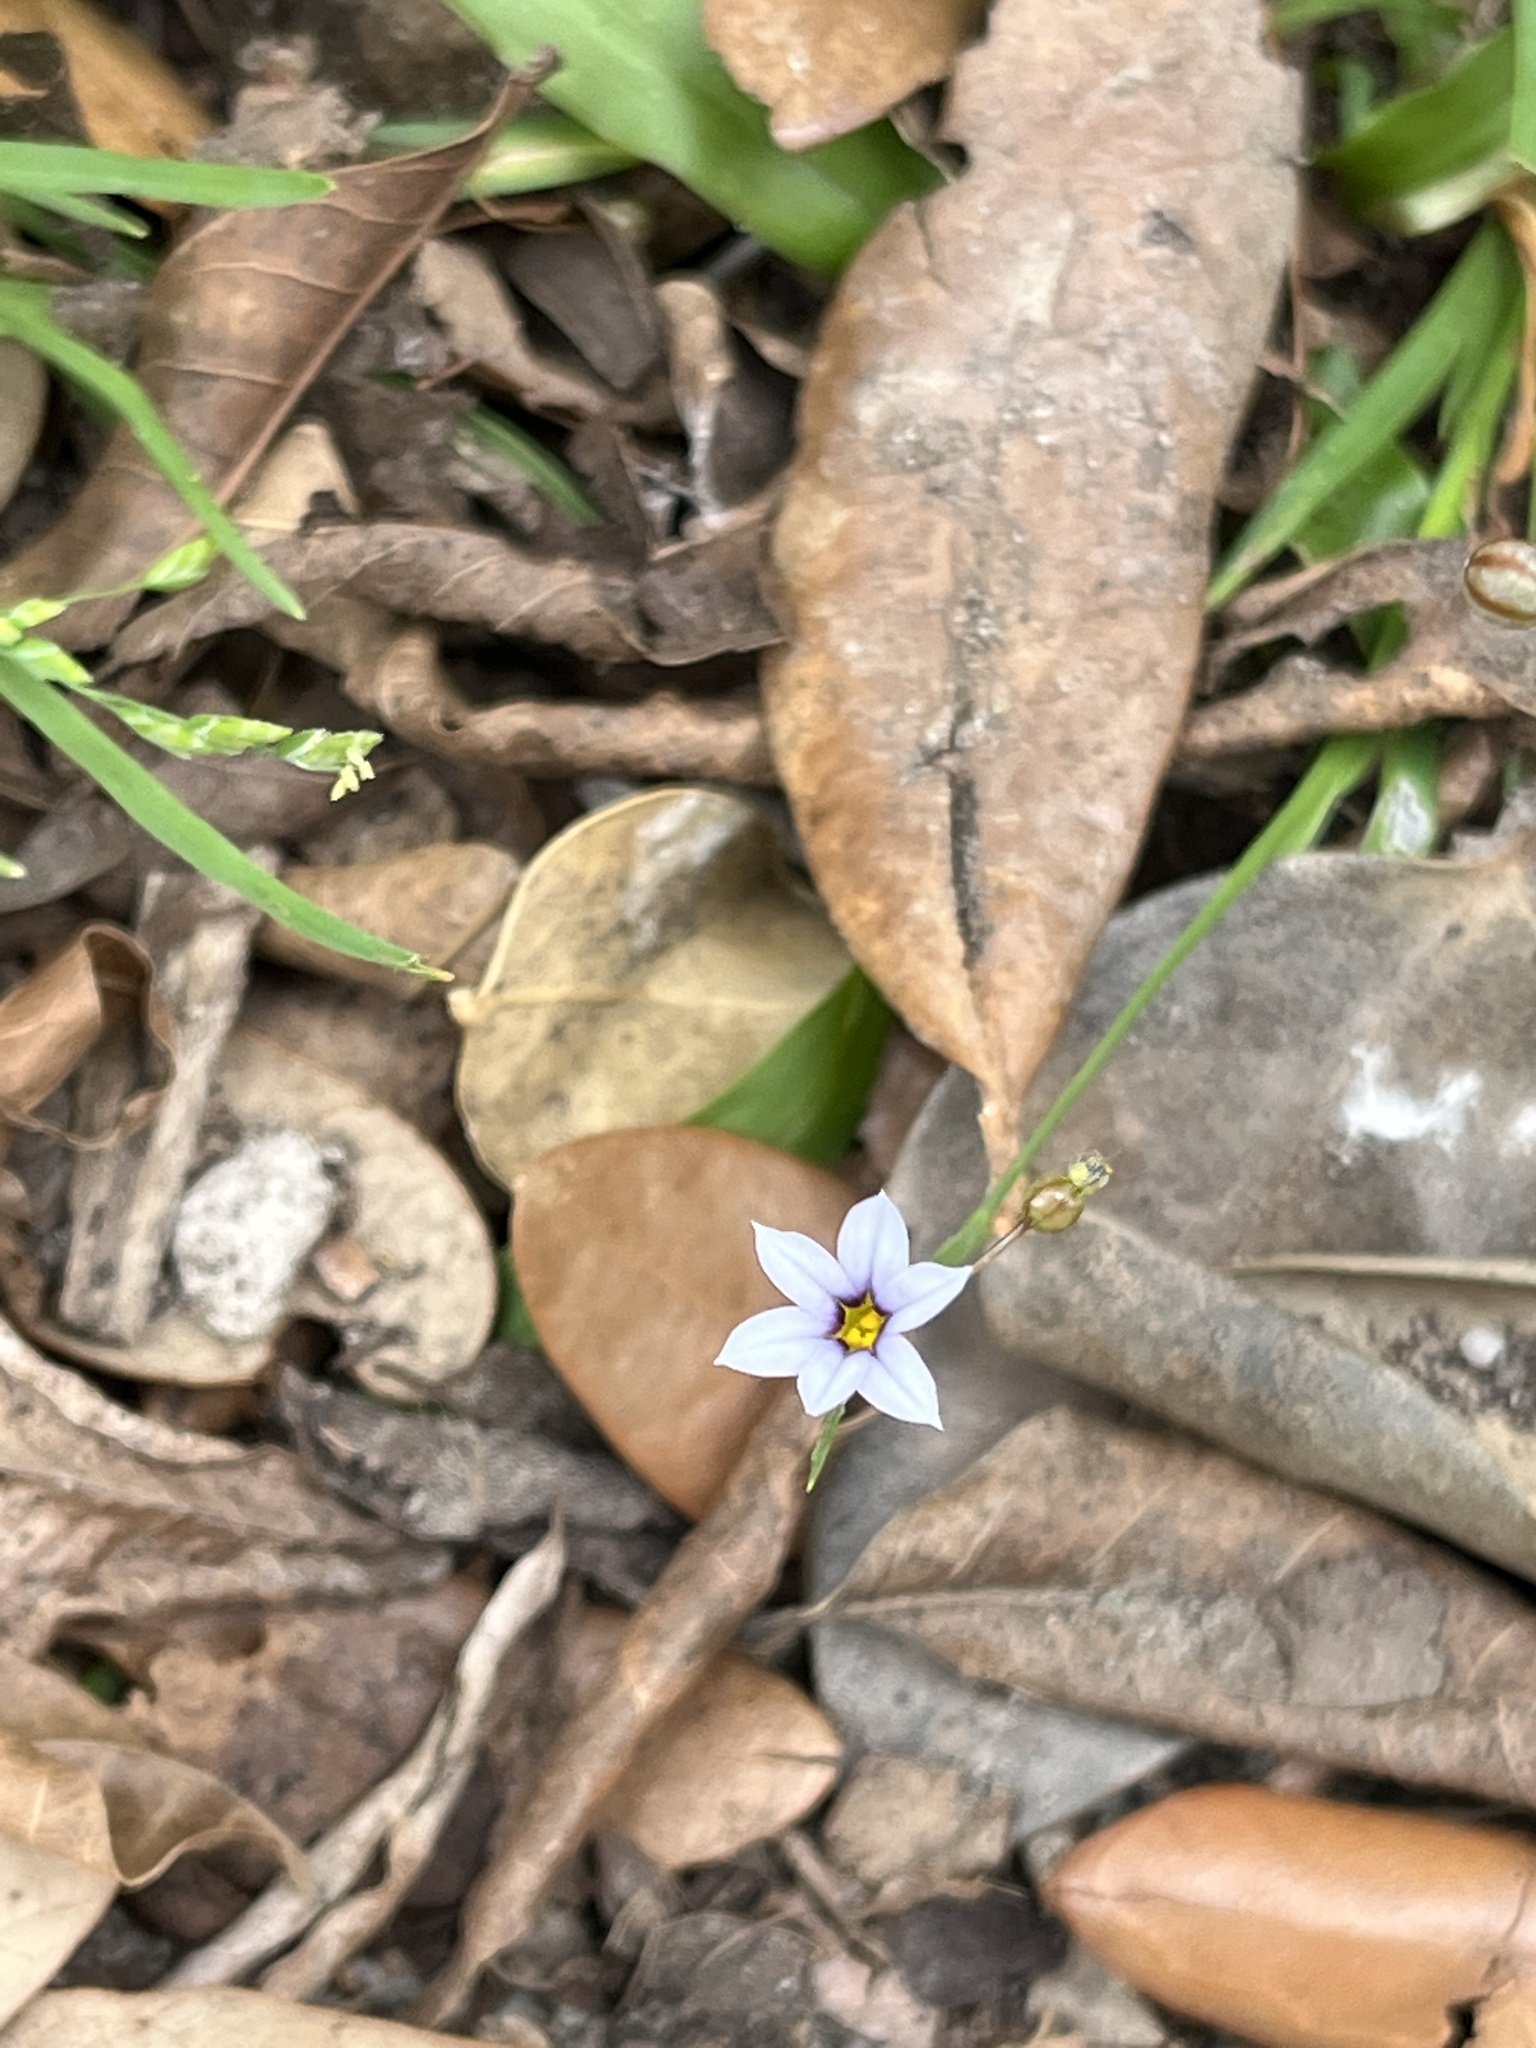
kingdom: Plantae
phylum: Tracheophyta
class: Liliopsida
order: Asparagales
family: Iridaceae
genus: Sisyrinchium
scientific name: Sisyrinchium micranthum
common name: Bermuda pigroot
